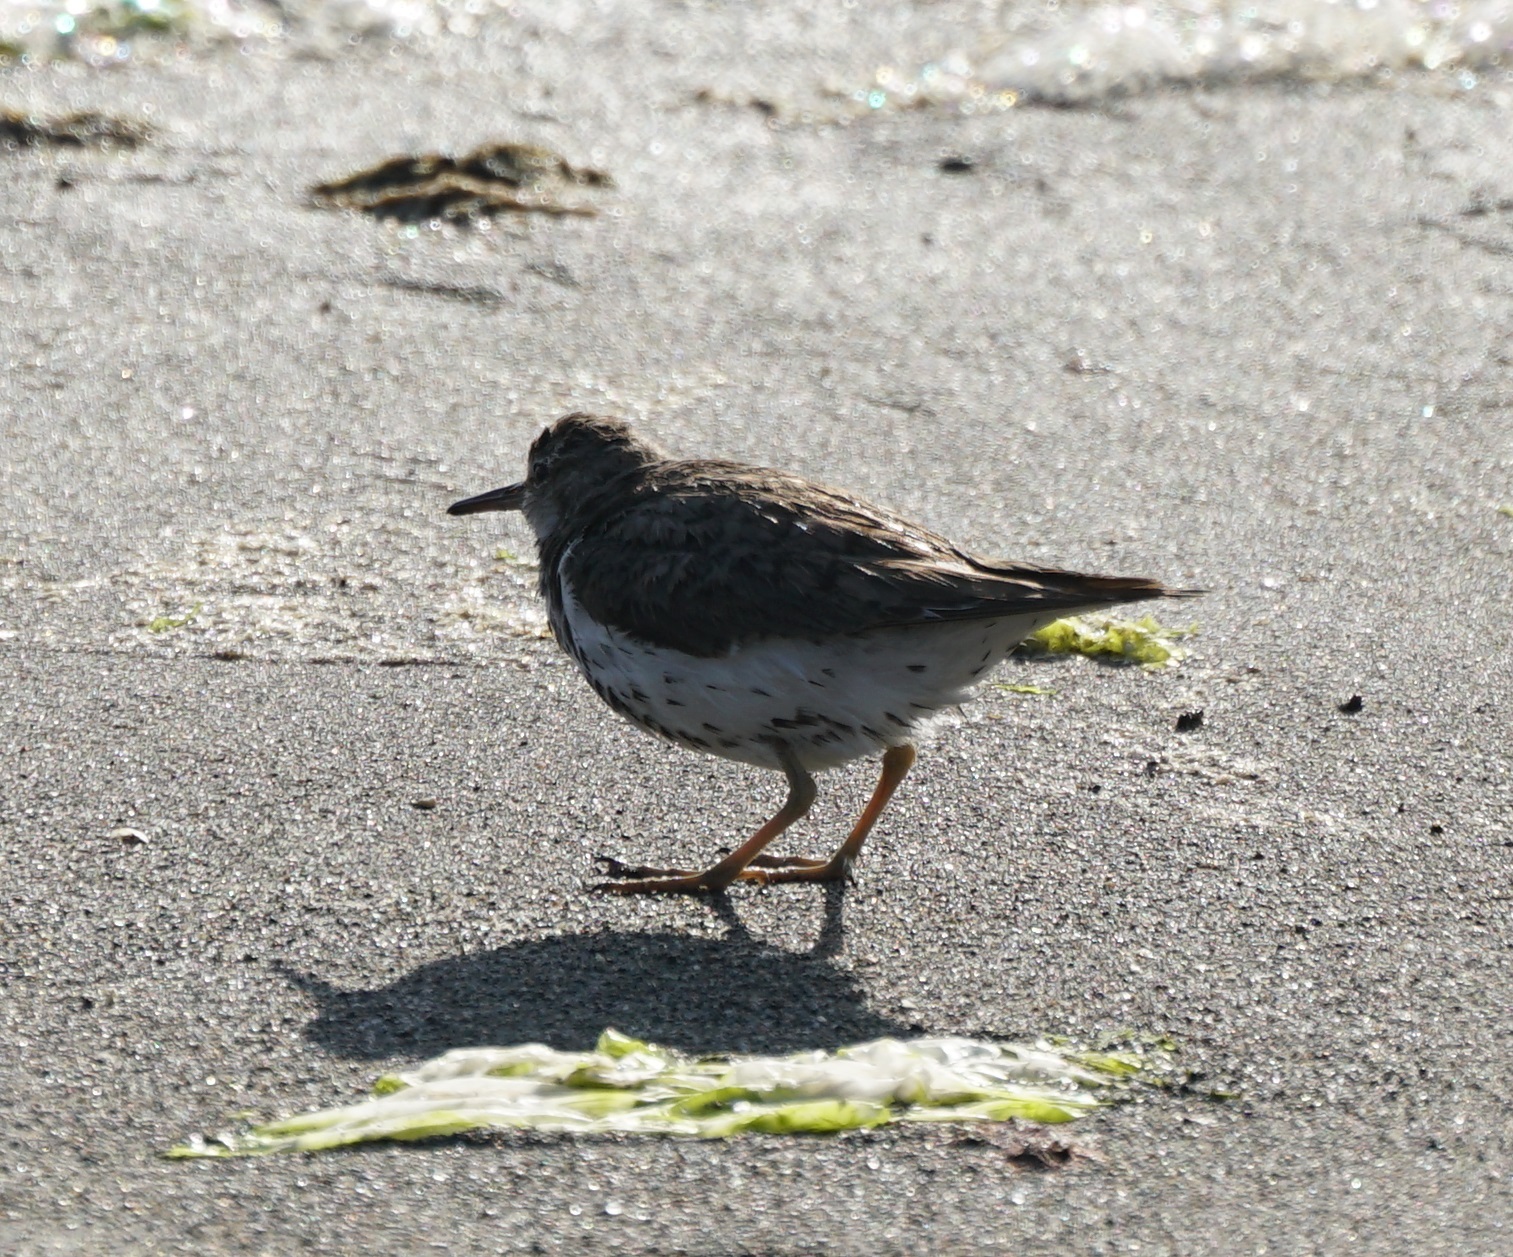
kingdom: Animalia
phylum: Chordata
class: Aves
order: Charadriiformes
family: Scolopacidae
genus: Actitis
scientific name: Actitis macularius
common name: Spotted sandpiper
